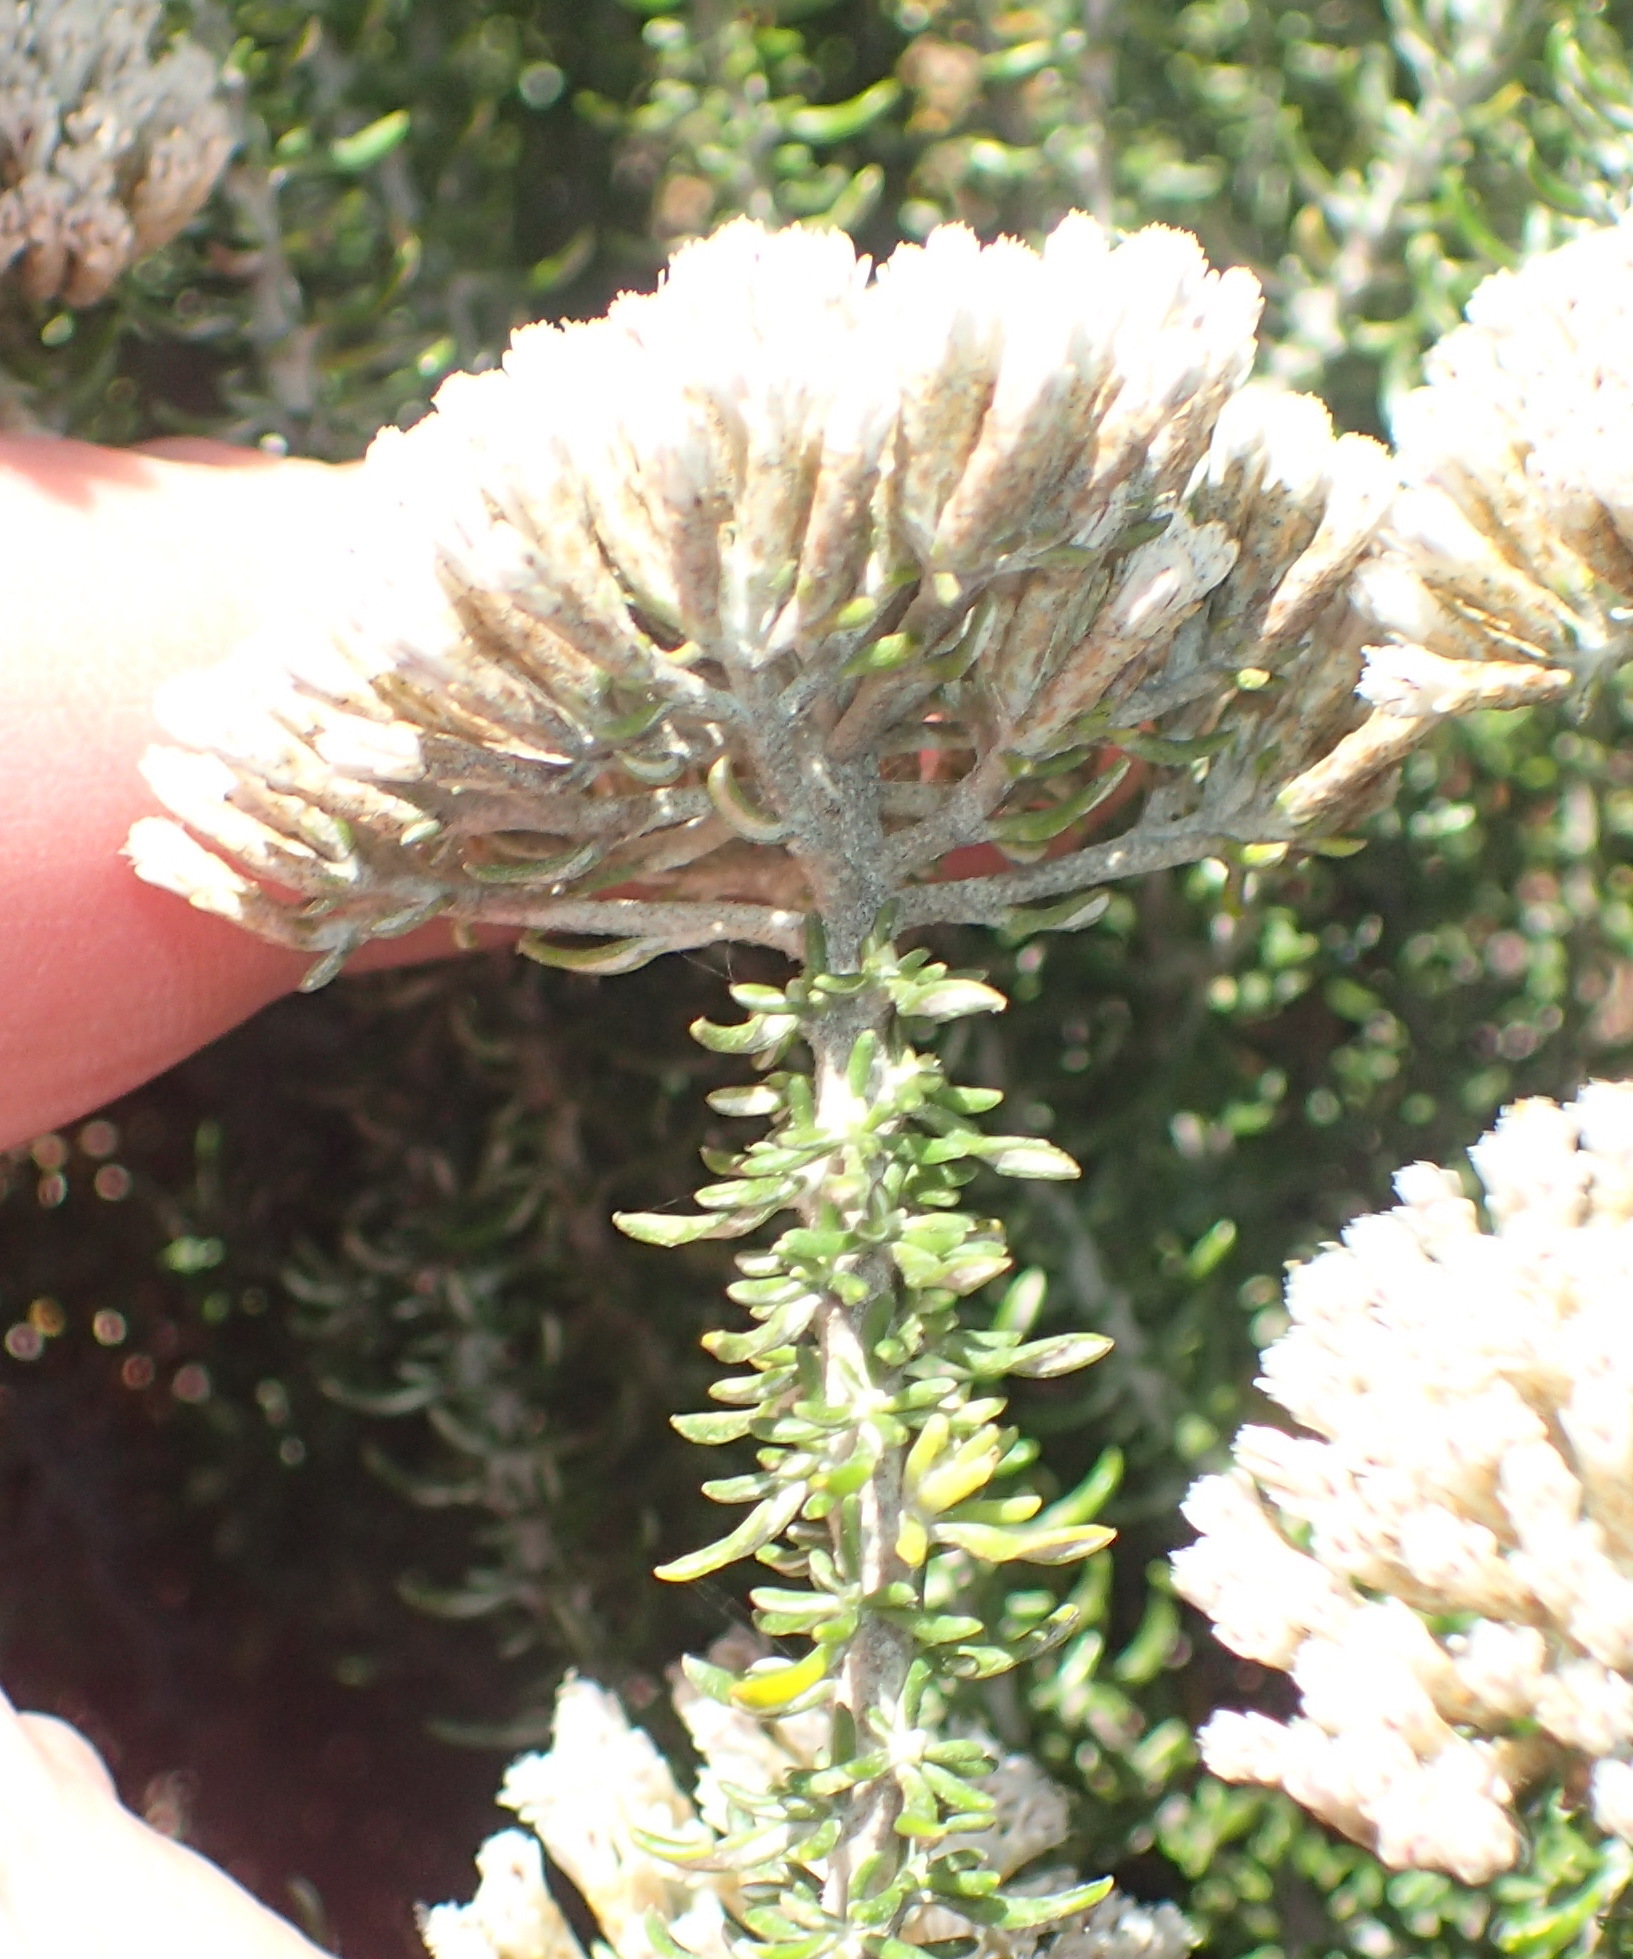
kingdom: Plantae
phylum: Tracheophyta
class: Magnoliopsida
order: Asterales
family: Asteraceae
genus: Metalasia
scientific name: Metalasia muricata
